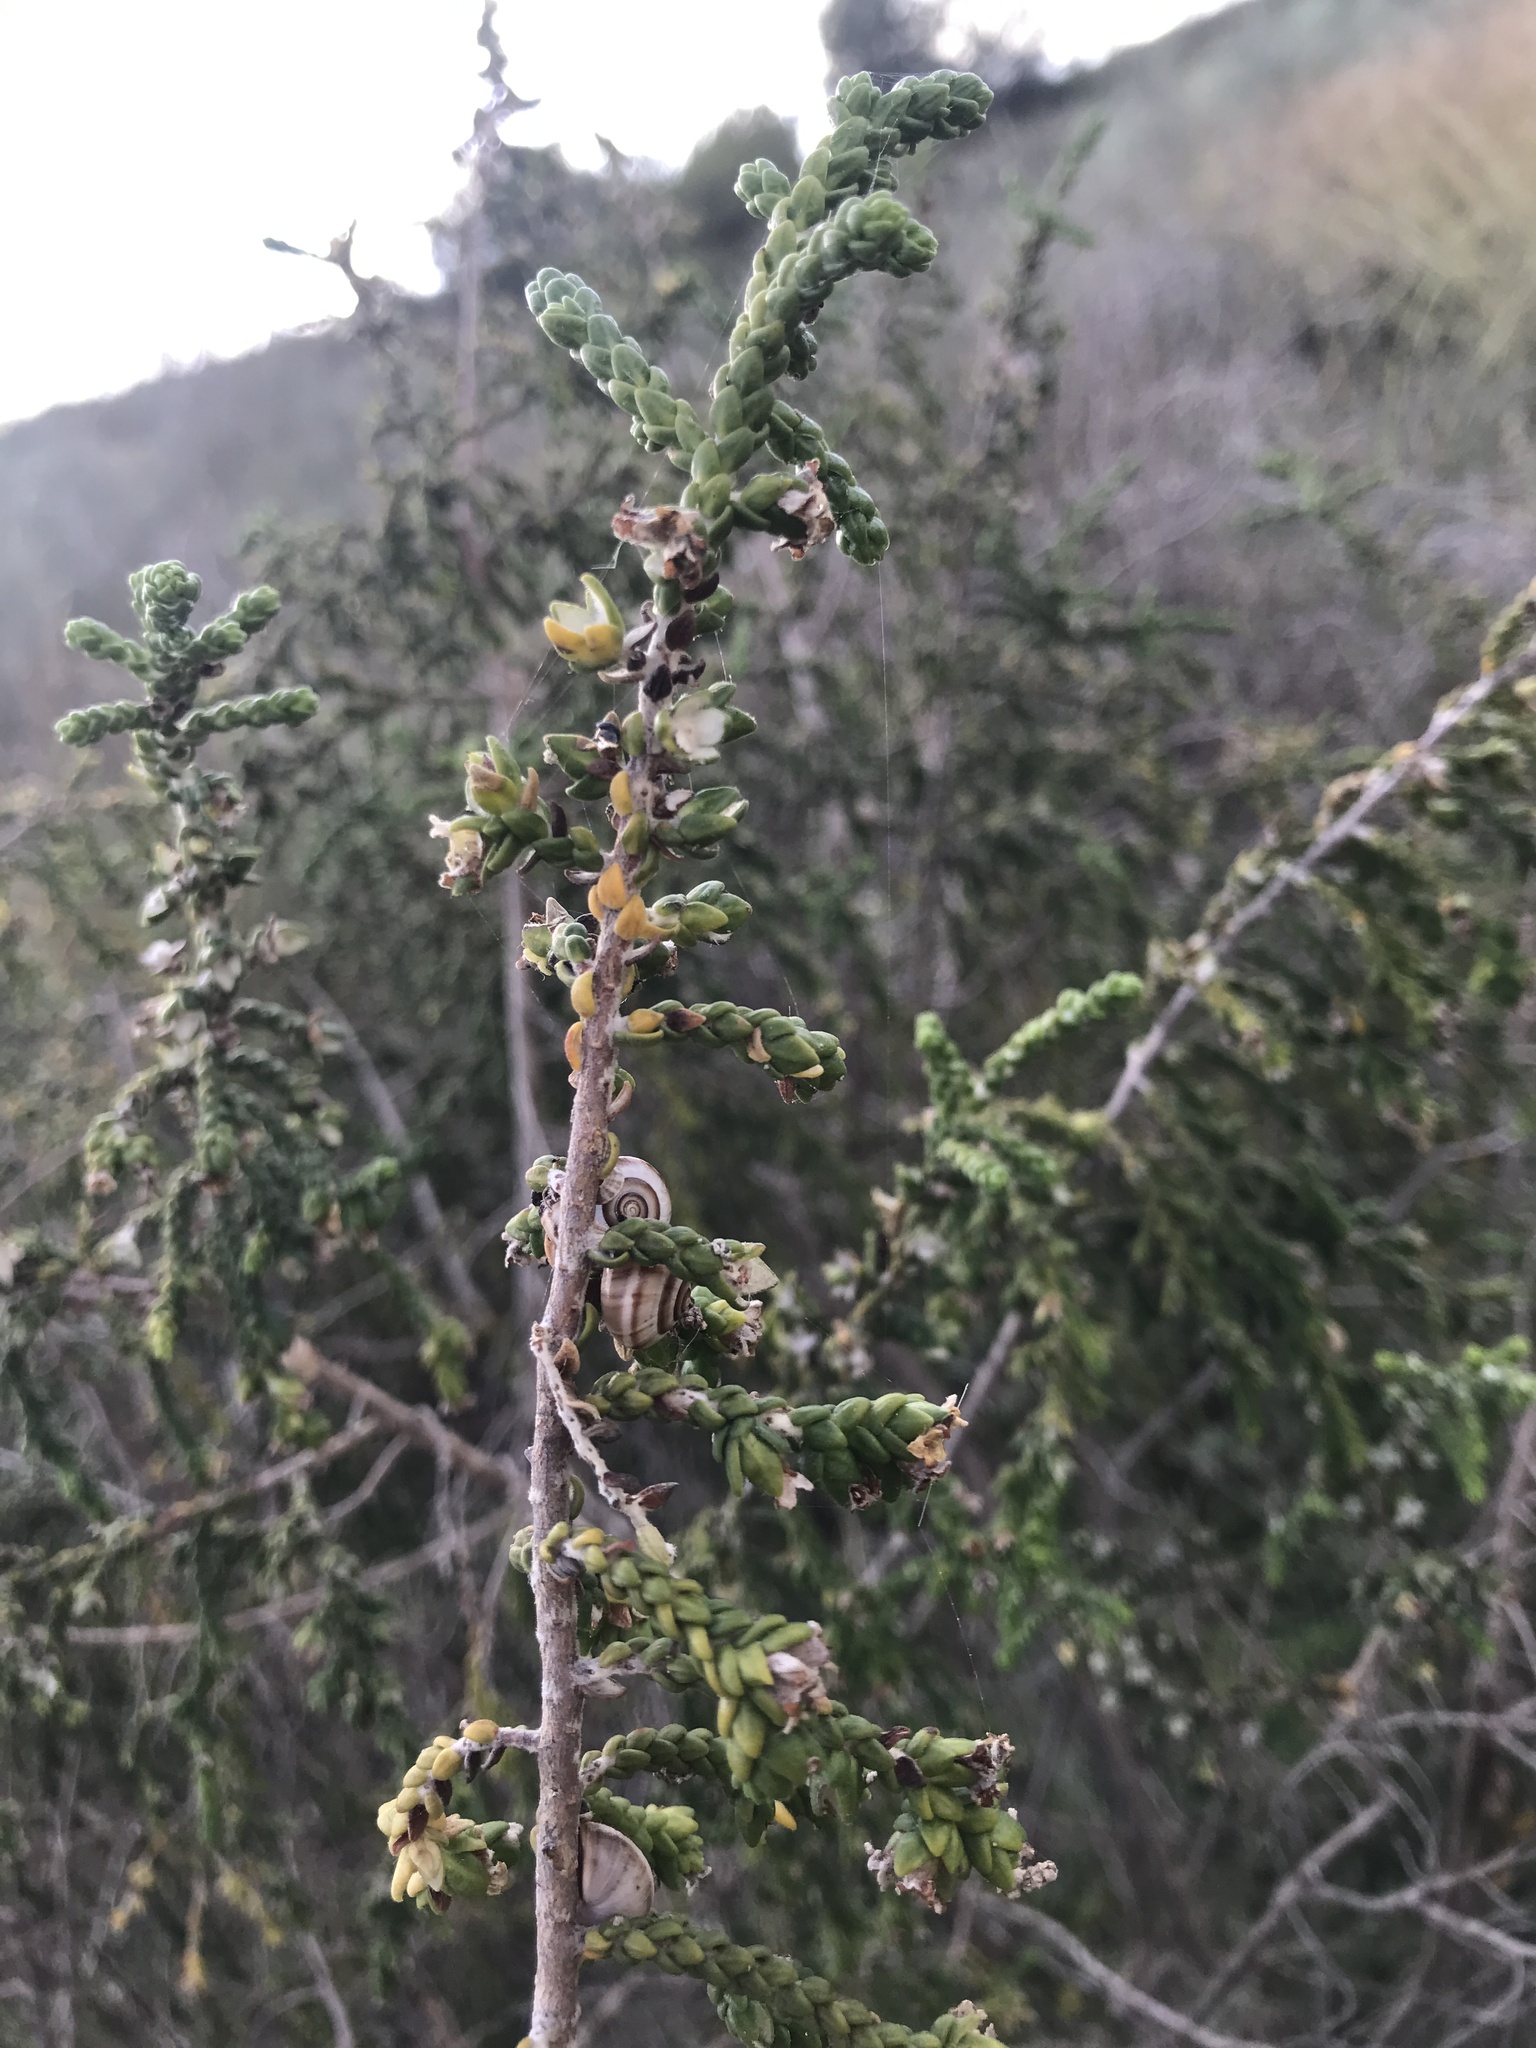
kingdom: Plantae
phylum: Tracheophyta
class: Magnoliopsida
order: Malvales
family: Thymelaeaceae
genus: Thymelaea
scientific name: Thymelaea hirsuta
